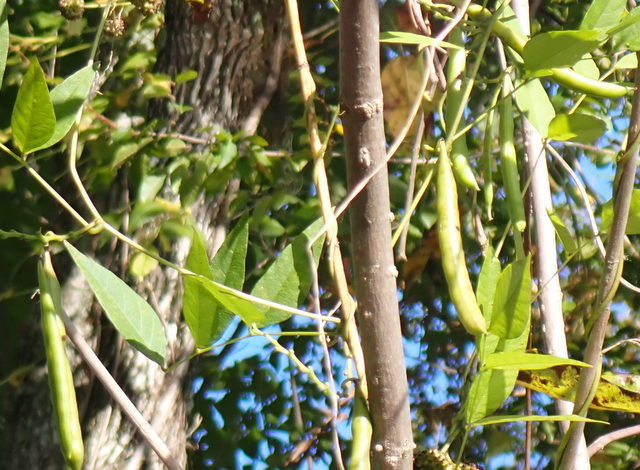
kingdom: Plantae
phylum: Tracheophyta
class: Magnoliopsida
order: Fabales
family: Fabaceae
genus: Apios
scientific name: Apios americana
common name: American potato-bean
